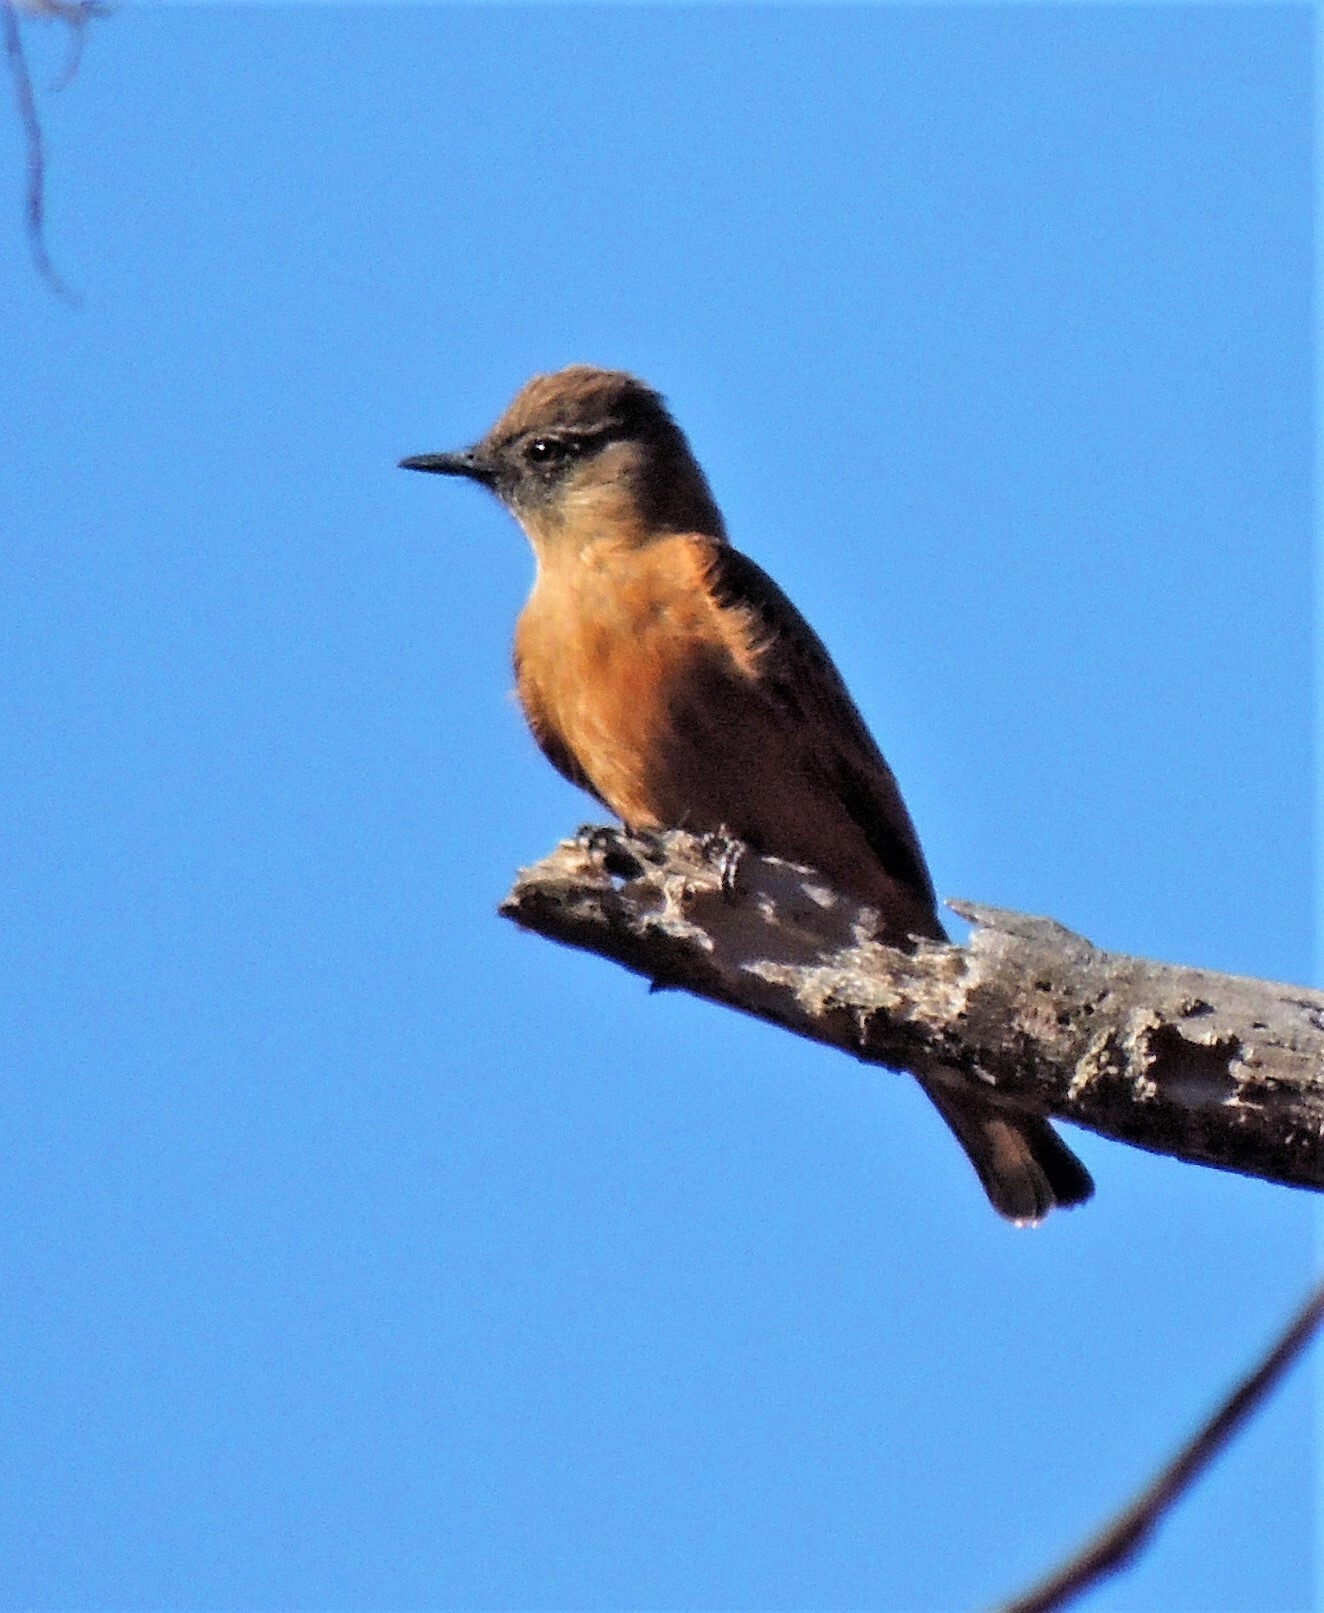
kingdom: Animalia
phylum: Chordata
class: Aves
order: Passeriformes
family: Tyrannidae
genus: Hirundinea
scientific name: Hirundinea ferruginea
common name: Cliff flycatcher
